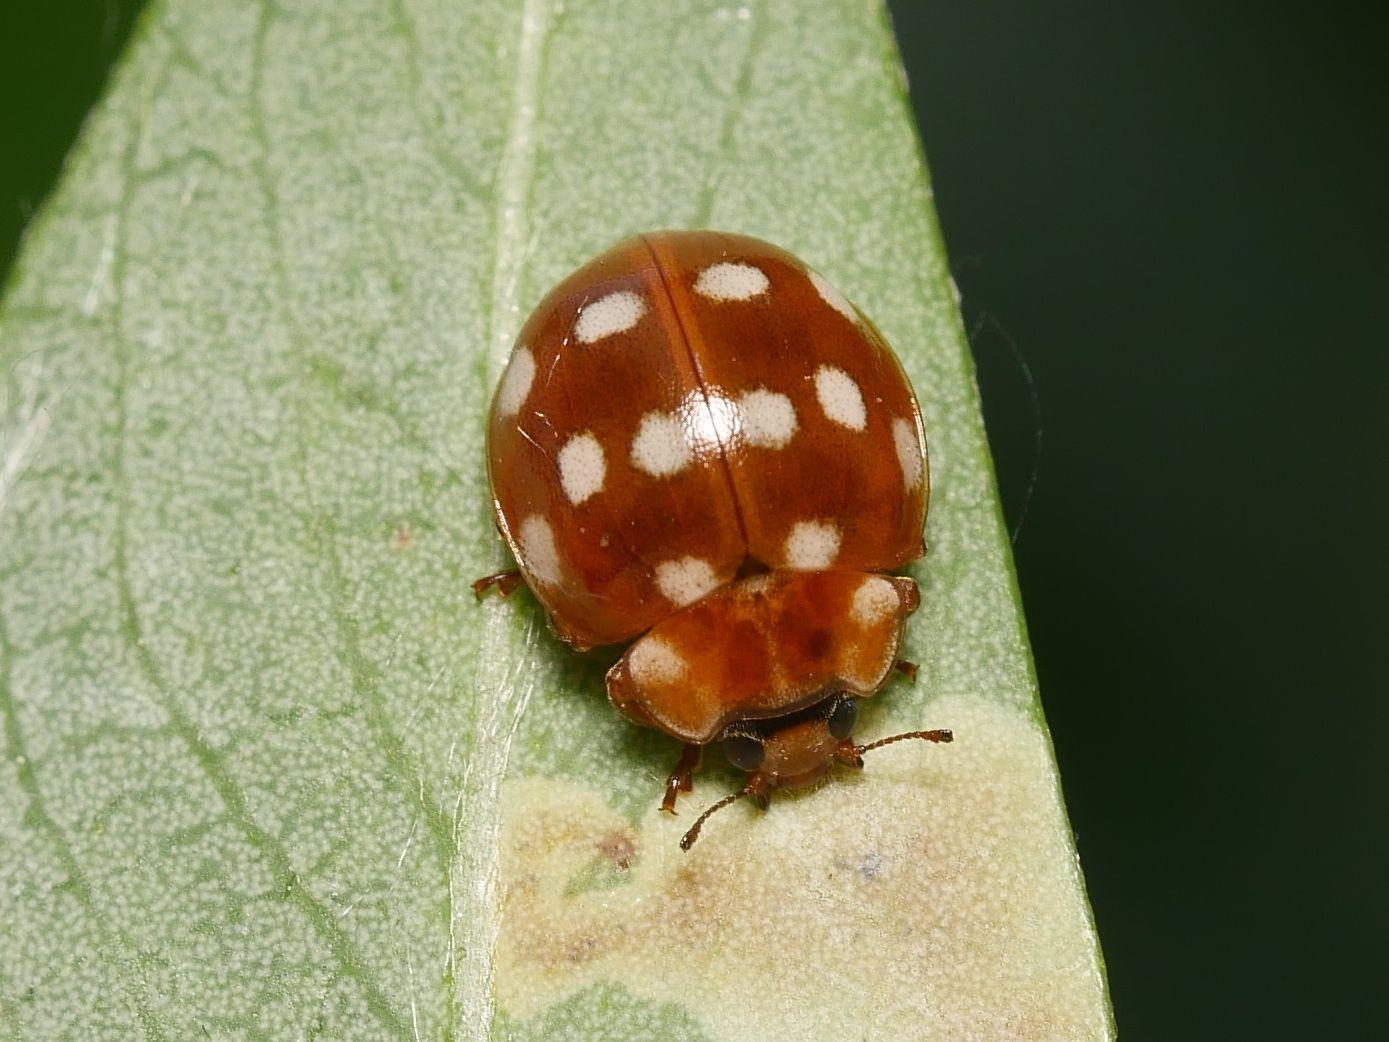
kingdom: Animalia
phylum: Arthropoda
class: Insecta
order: Coleoptera
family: Coccinellidae
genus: Calvia
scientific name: Calvia quatuordecimguttata
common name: Cream-spot ladybird
